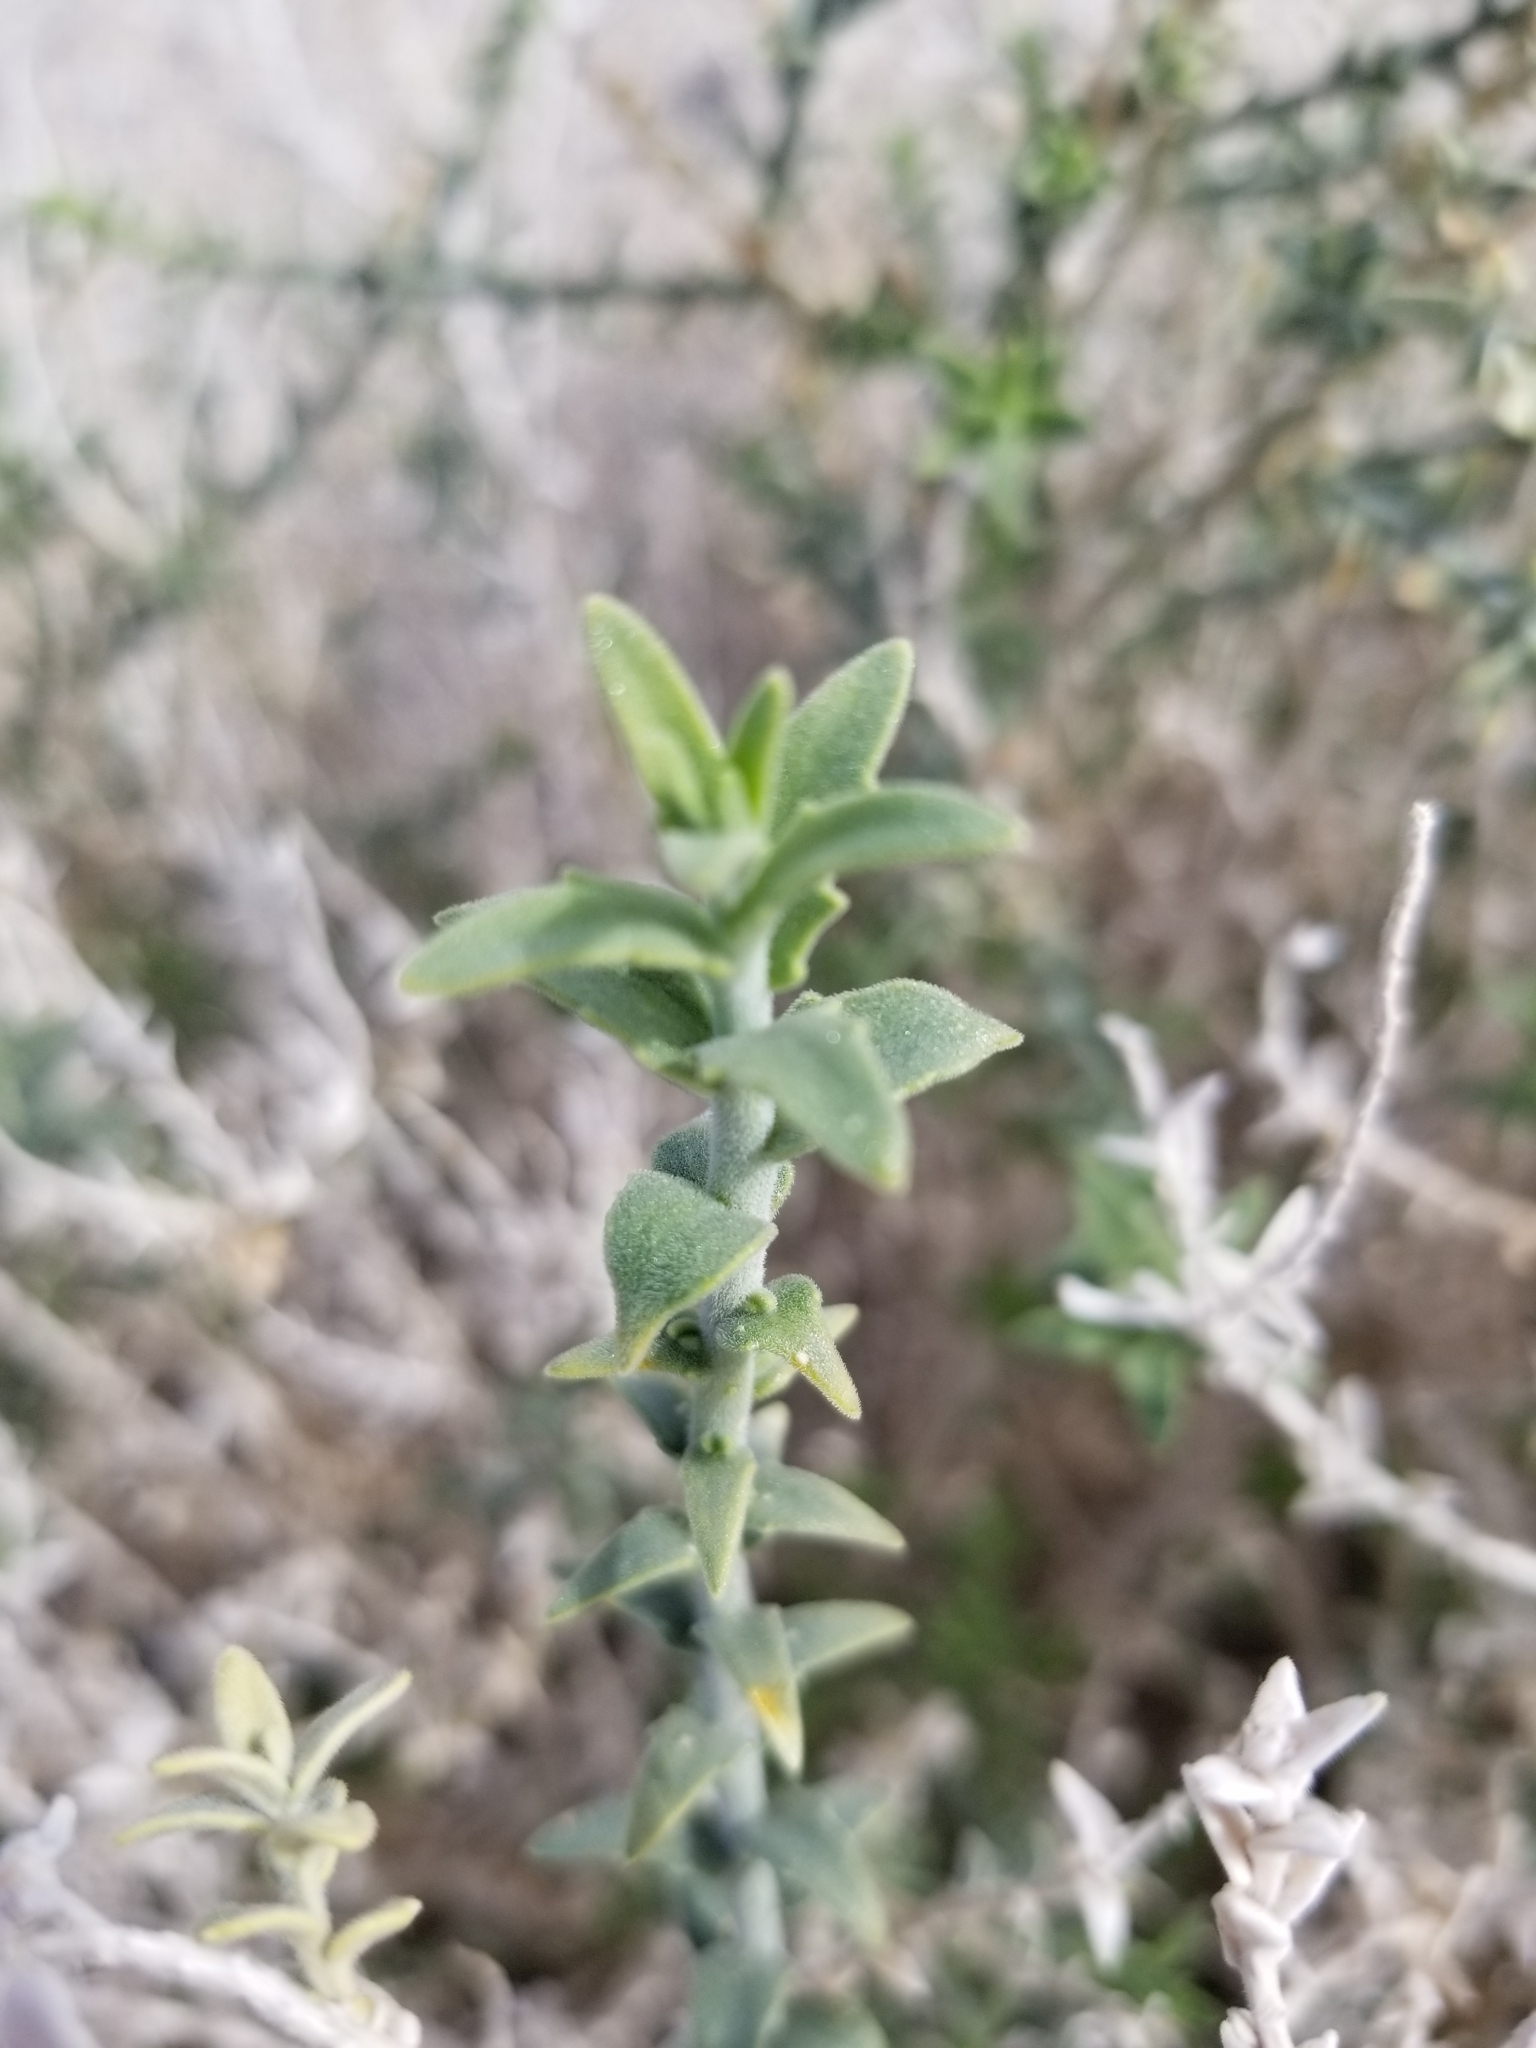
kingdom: Plantae
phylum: Tracheophyta
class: Magnoliopsida
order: Cornales
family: Loasaceae
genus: Petalonyx
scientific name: Petalonyx thurberi
